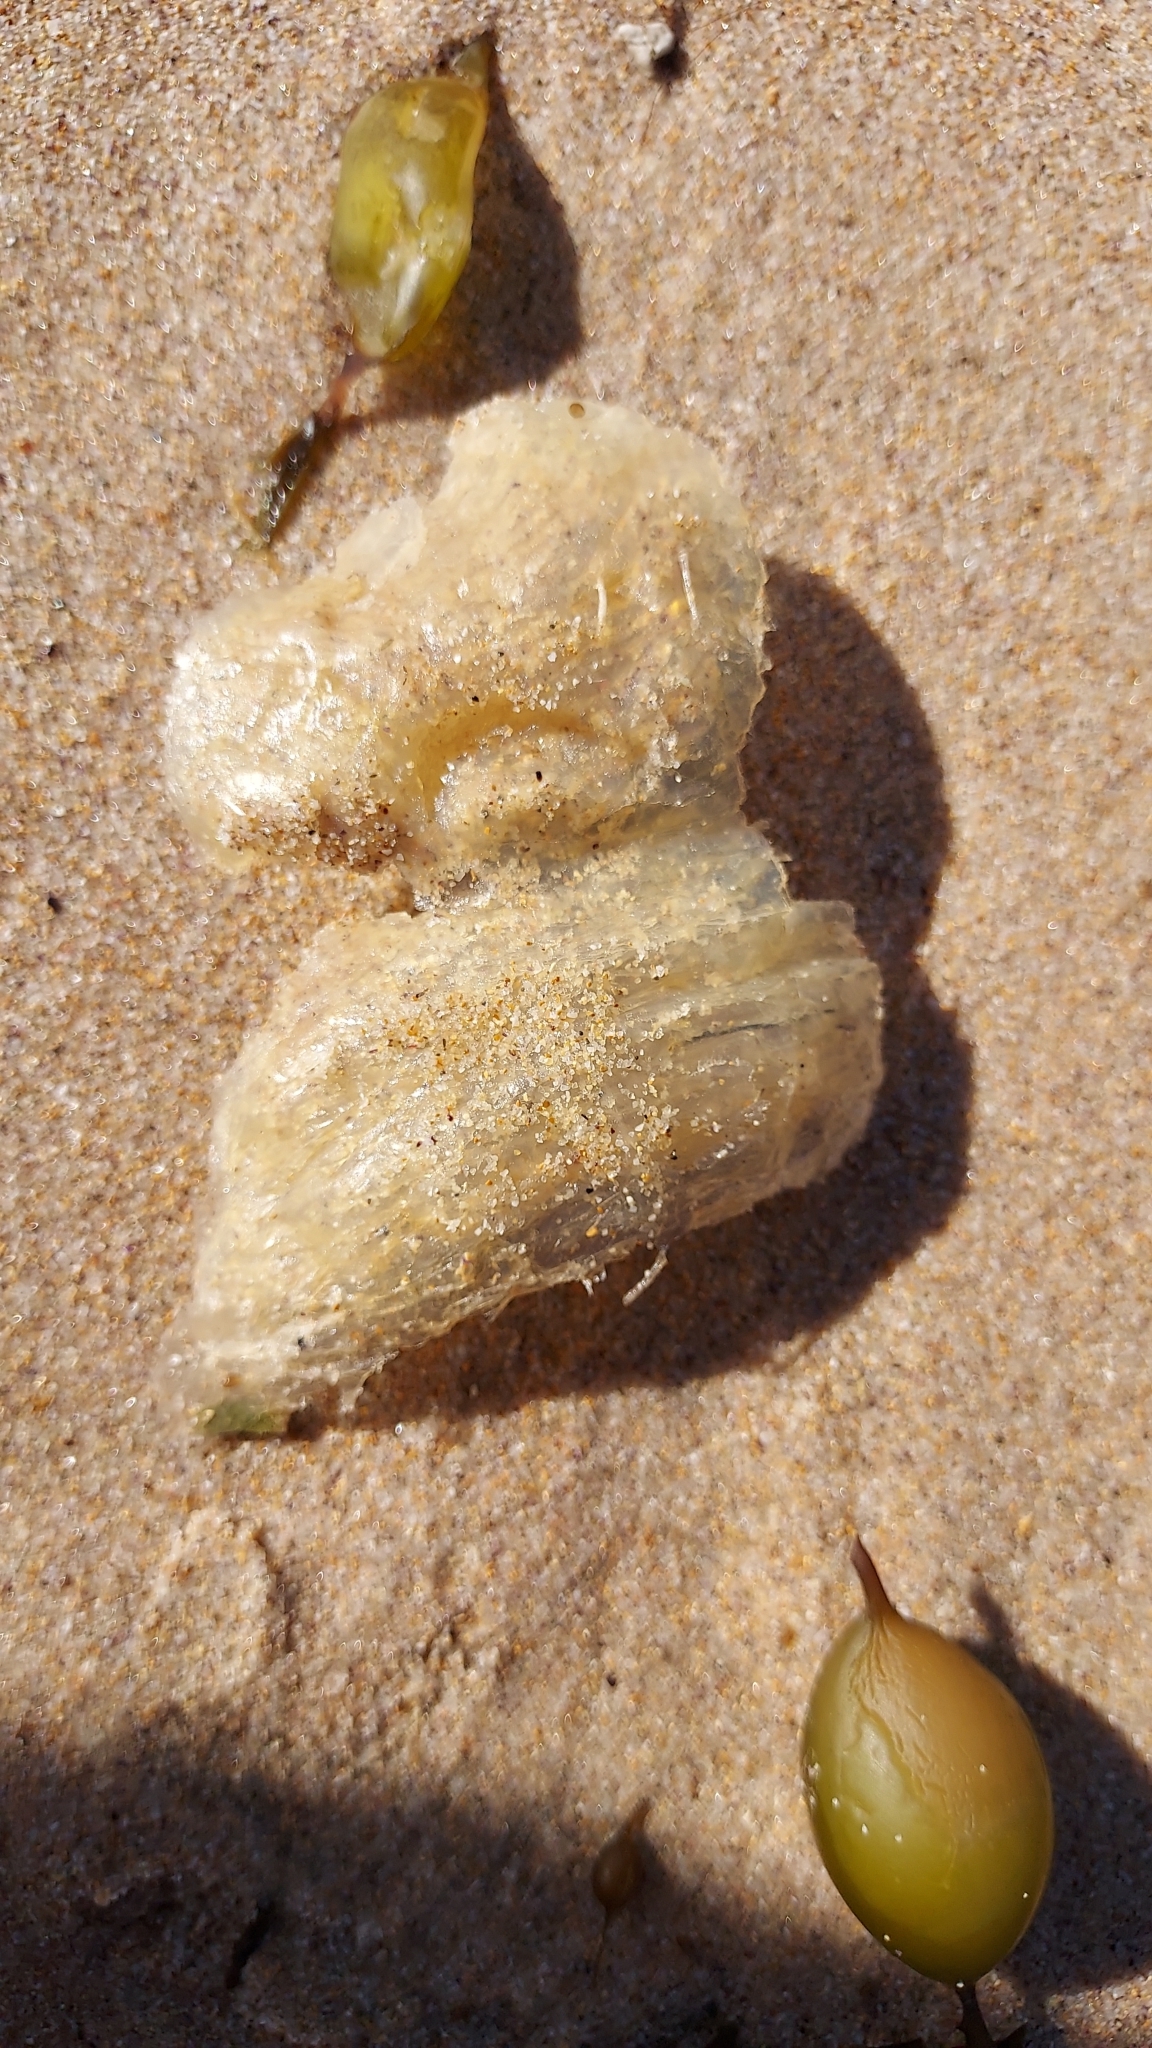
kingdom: Animalia
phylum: Mollusca
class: Gastropoda
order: Littorinimorpha
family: Cymatiidae
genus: Cabestana
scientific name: Cabestana spengleri
